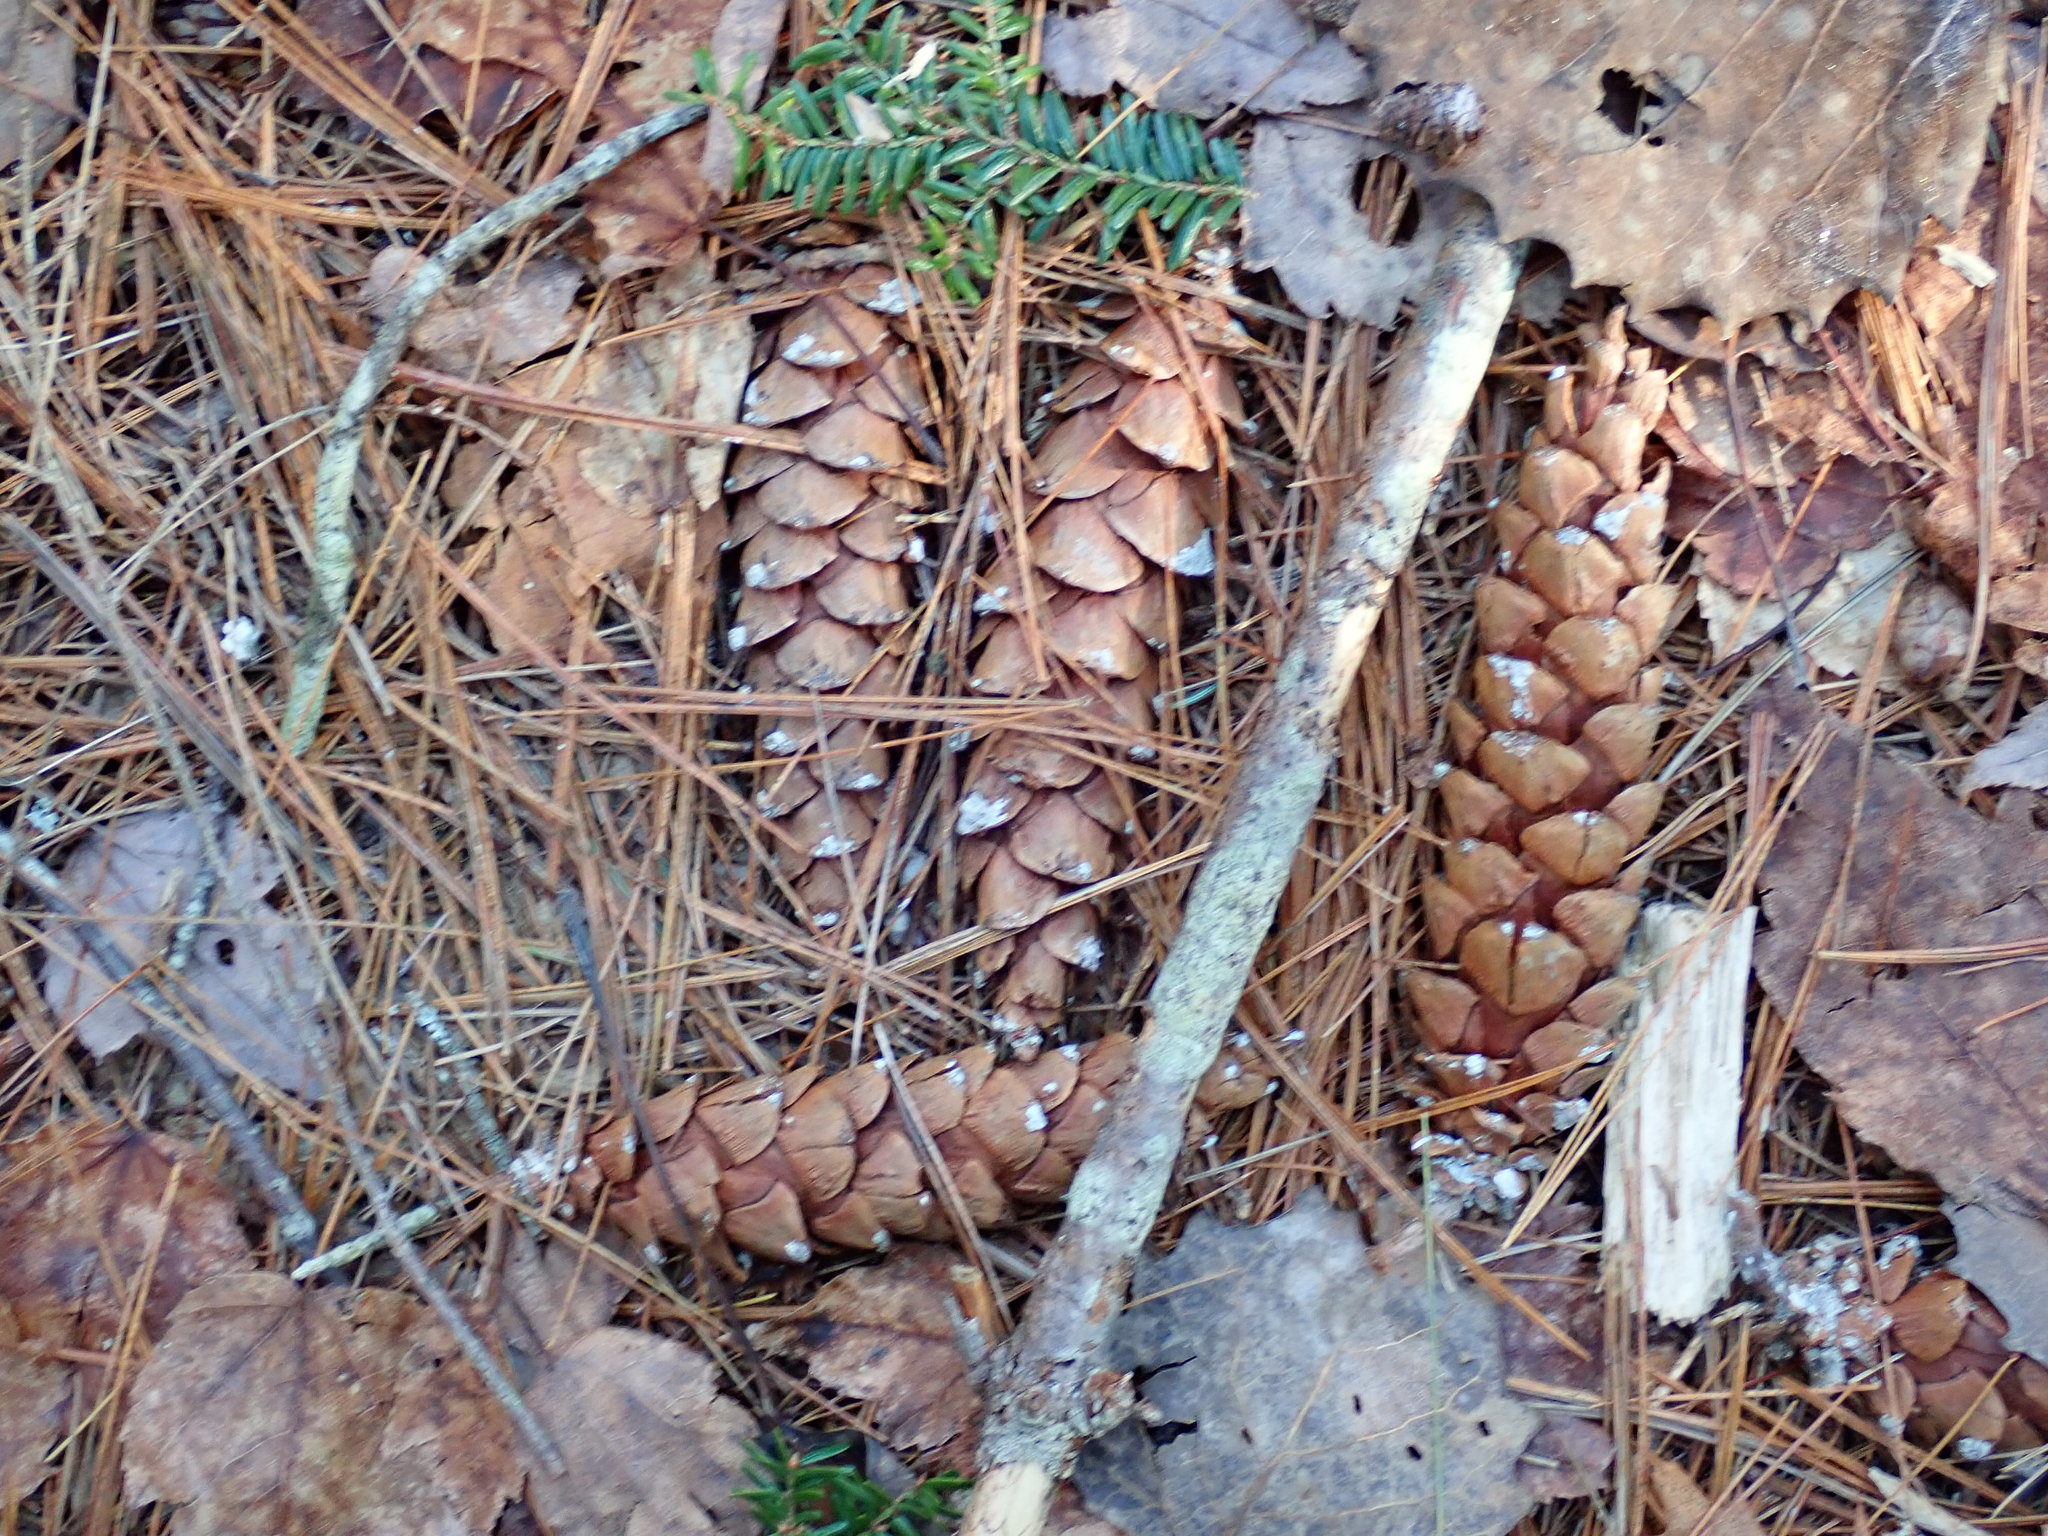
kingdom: Plantae
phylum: Tracheophyta
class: Pinopsida
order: Pinales
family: Pinaceae
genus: Pinus
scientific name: Pinus strobus
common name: Weymouth pine
